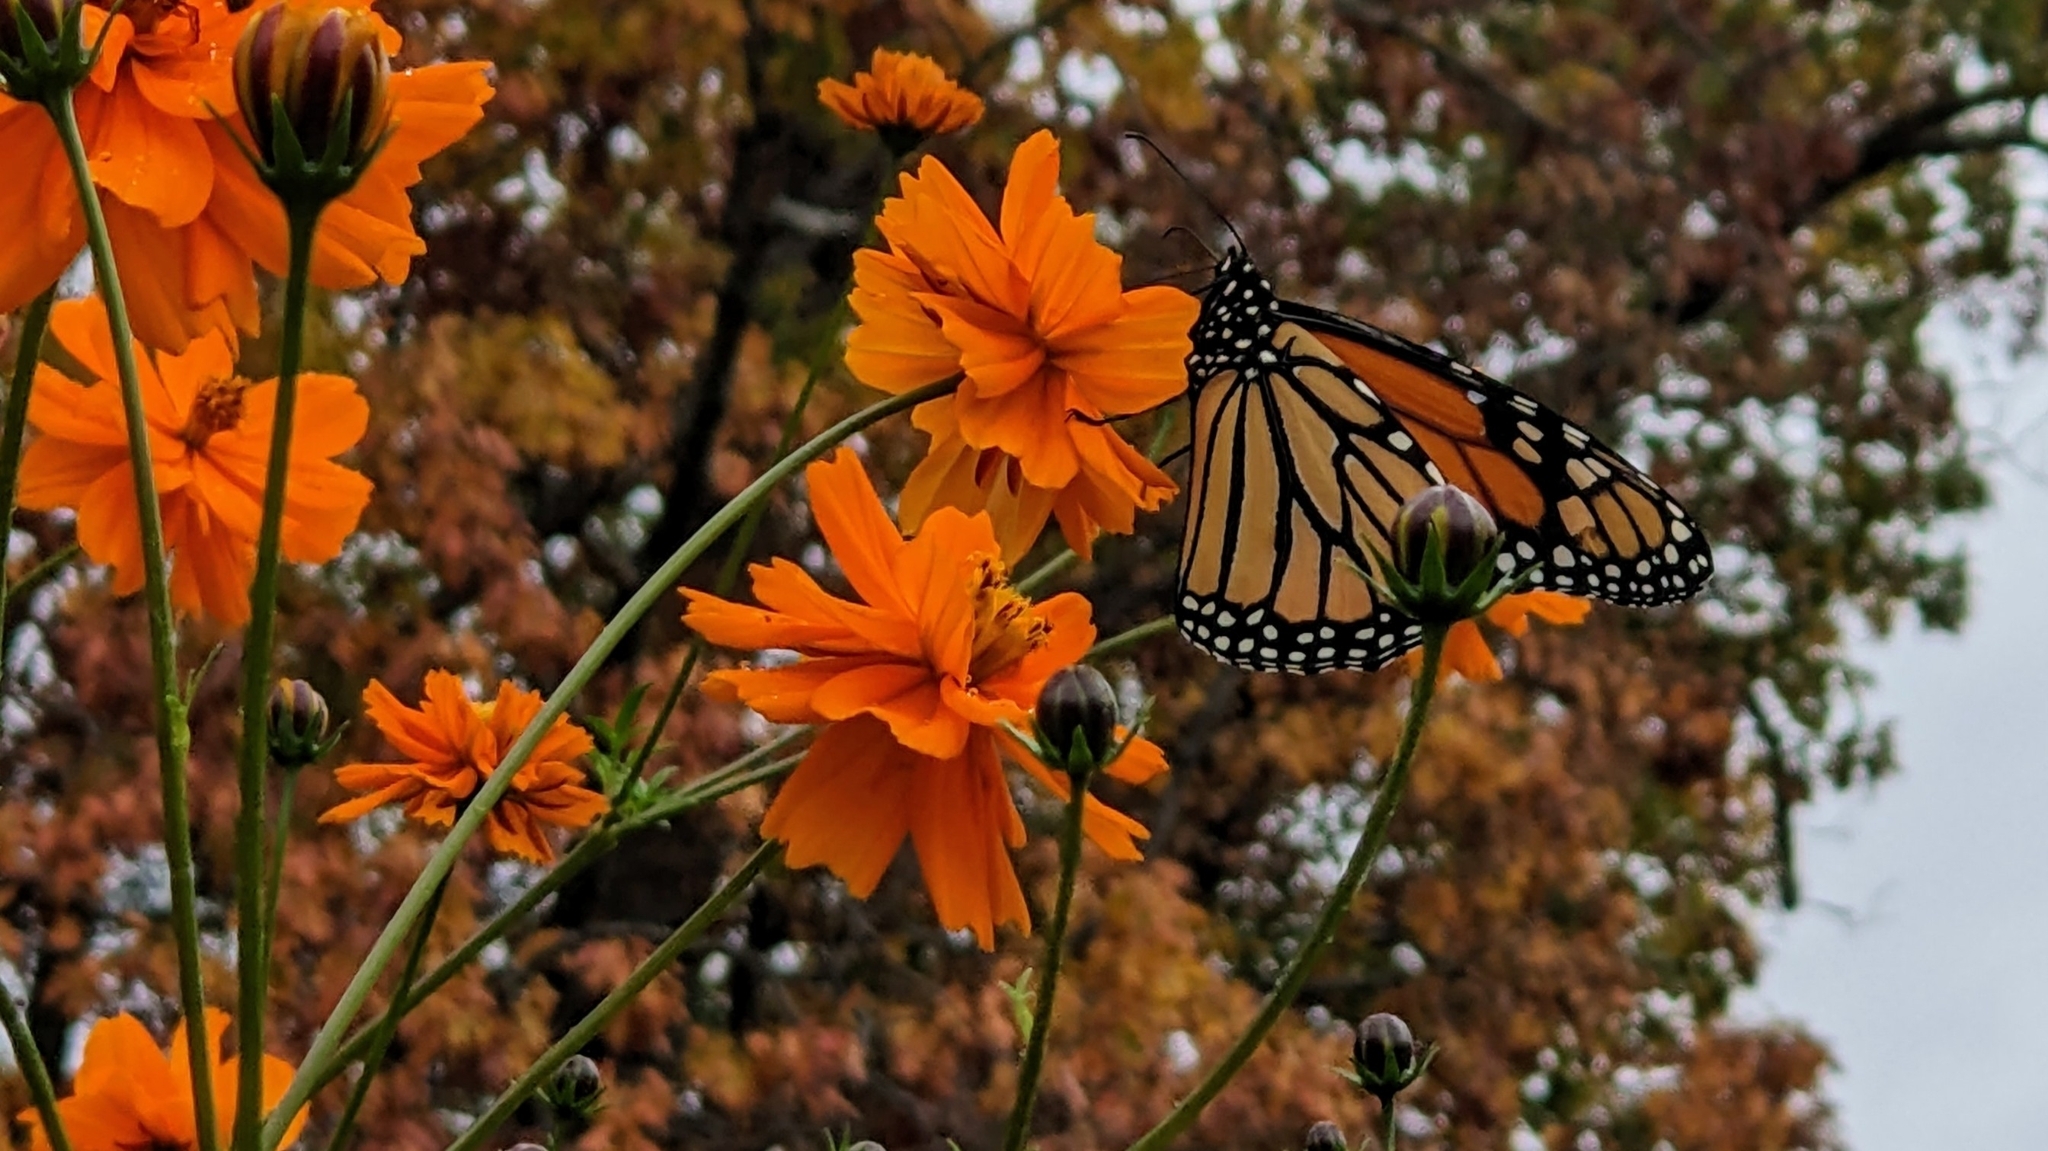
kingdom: Animalia
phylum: Arthropoda
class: Insecta
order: Lepidoptera
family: Nymphalidae
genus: Danaus
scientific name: Danaus plexippus
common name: Monarch
